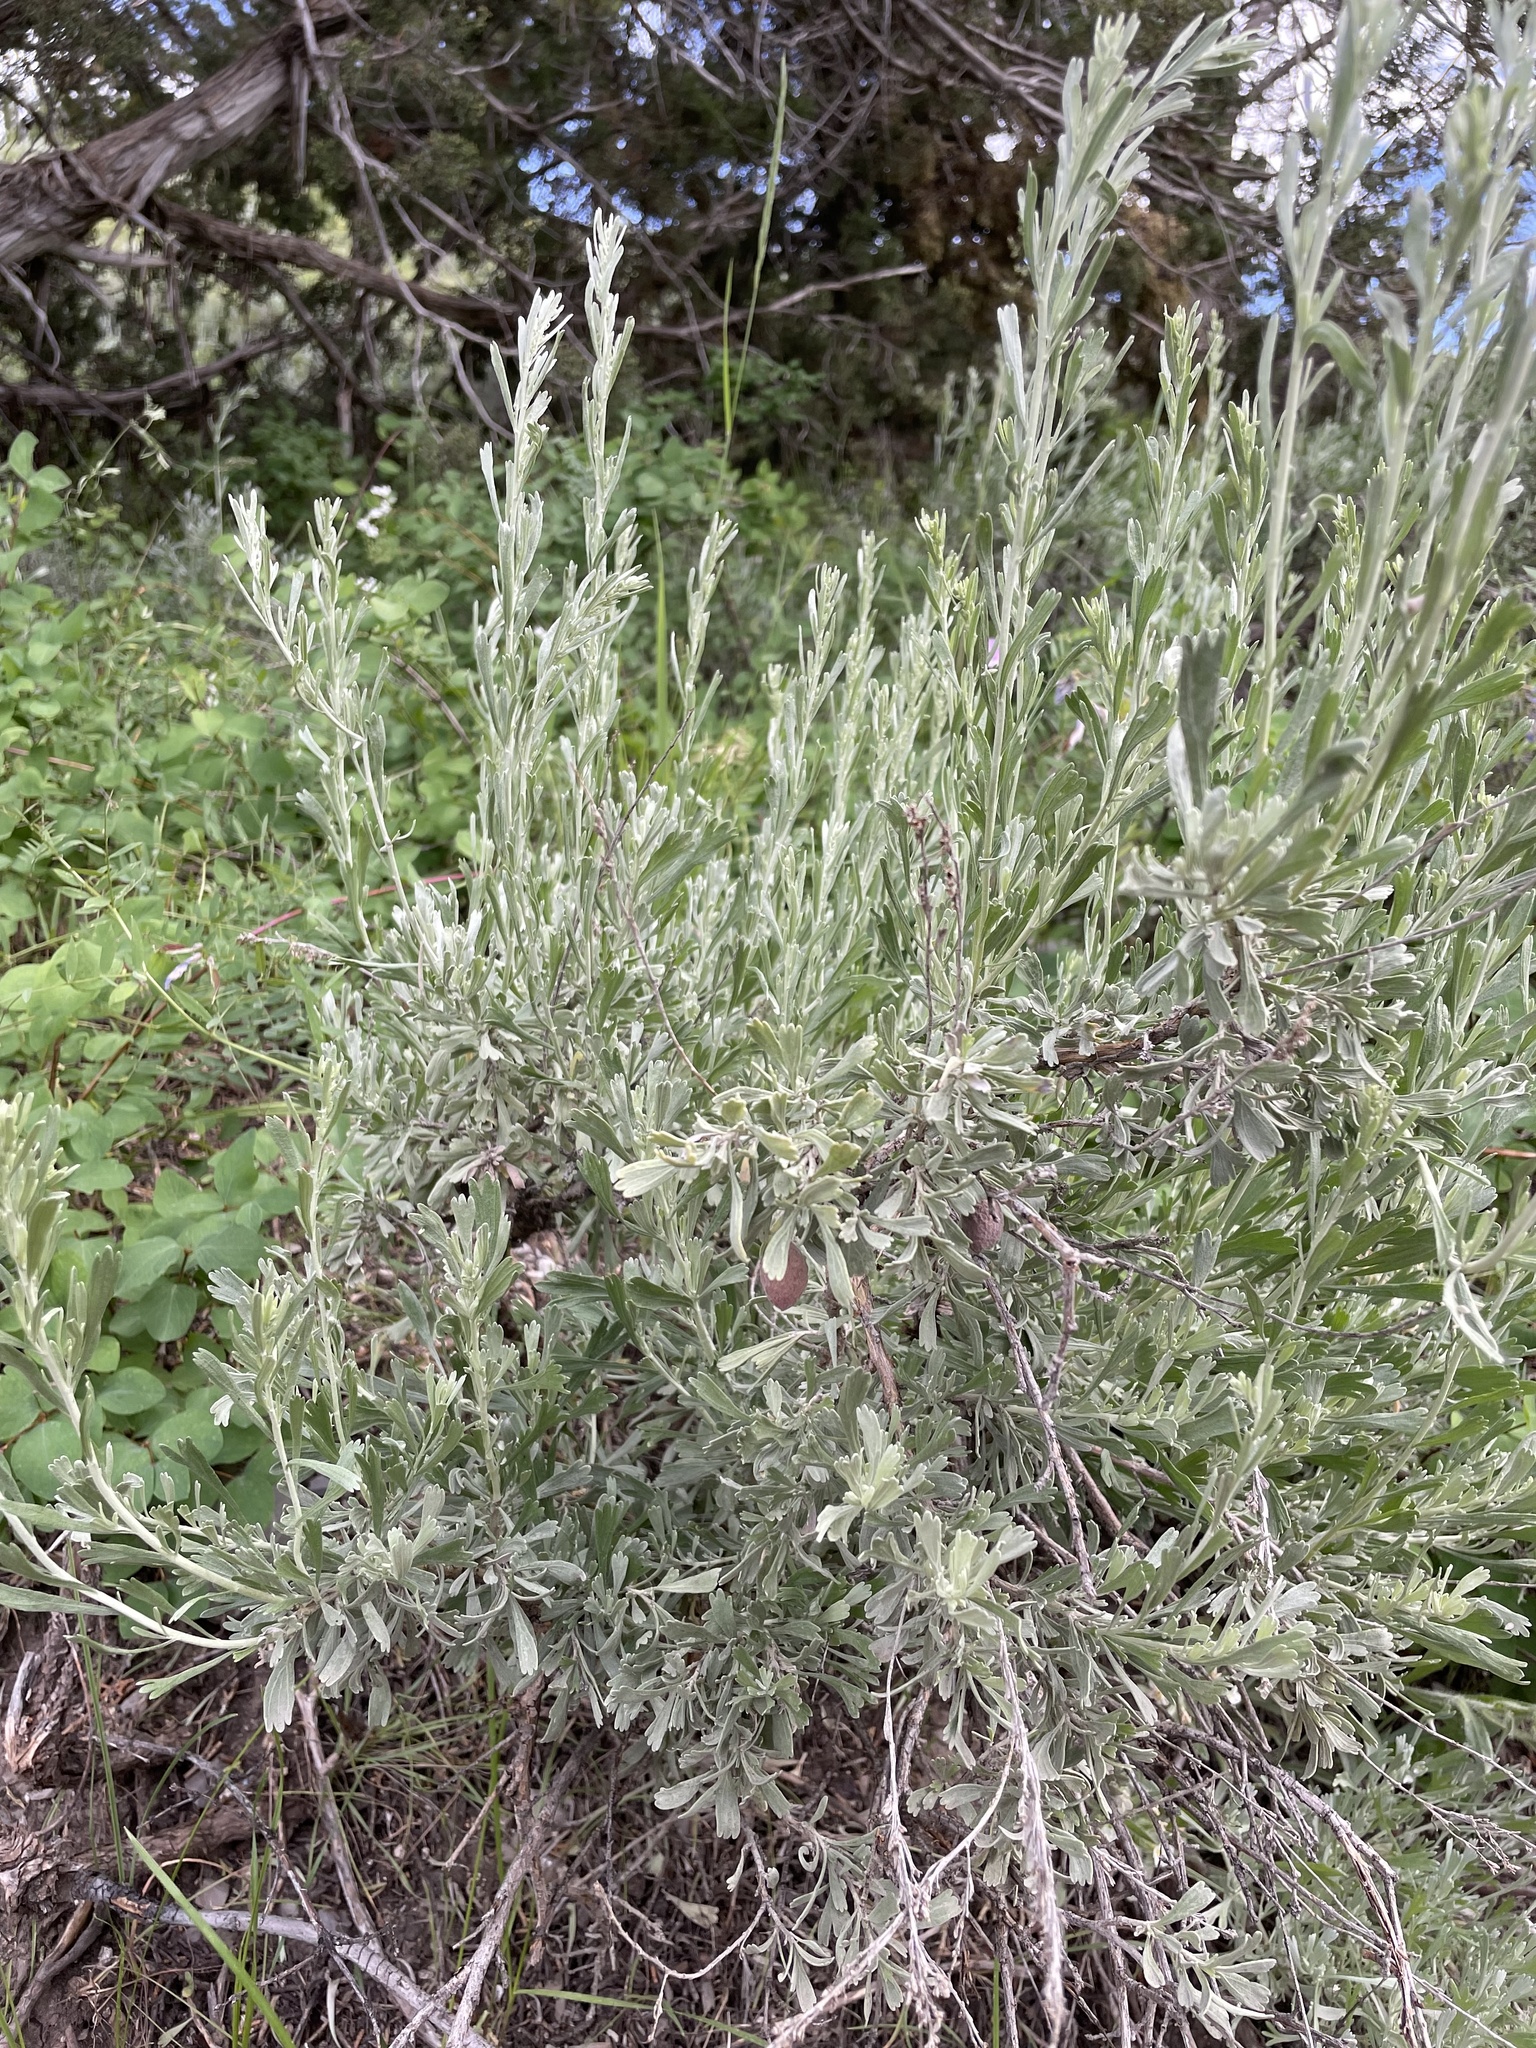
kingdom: Plantae
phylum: Tracheophyta
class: Magnoliopsida
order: Asterales
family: Asteraceae
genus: Artemisia
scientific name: Artemisia tridentata
